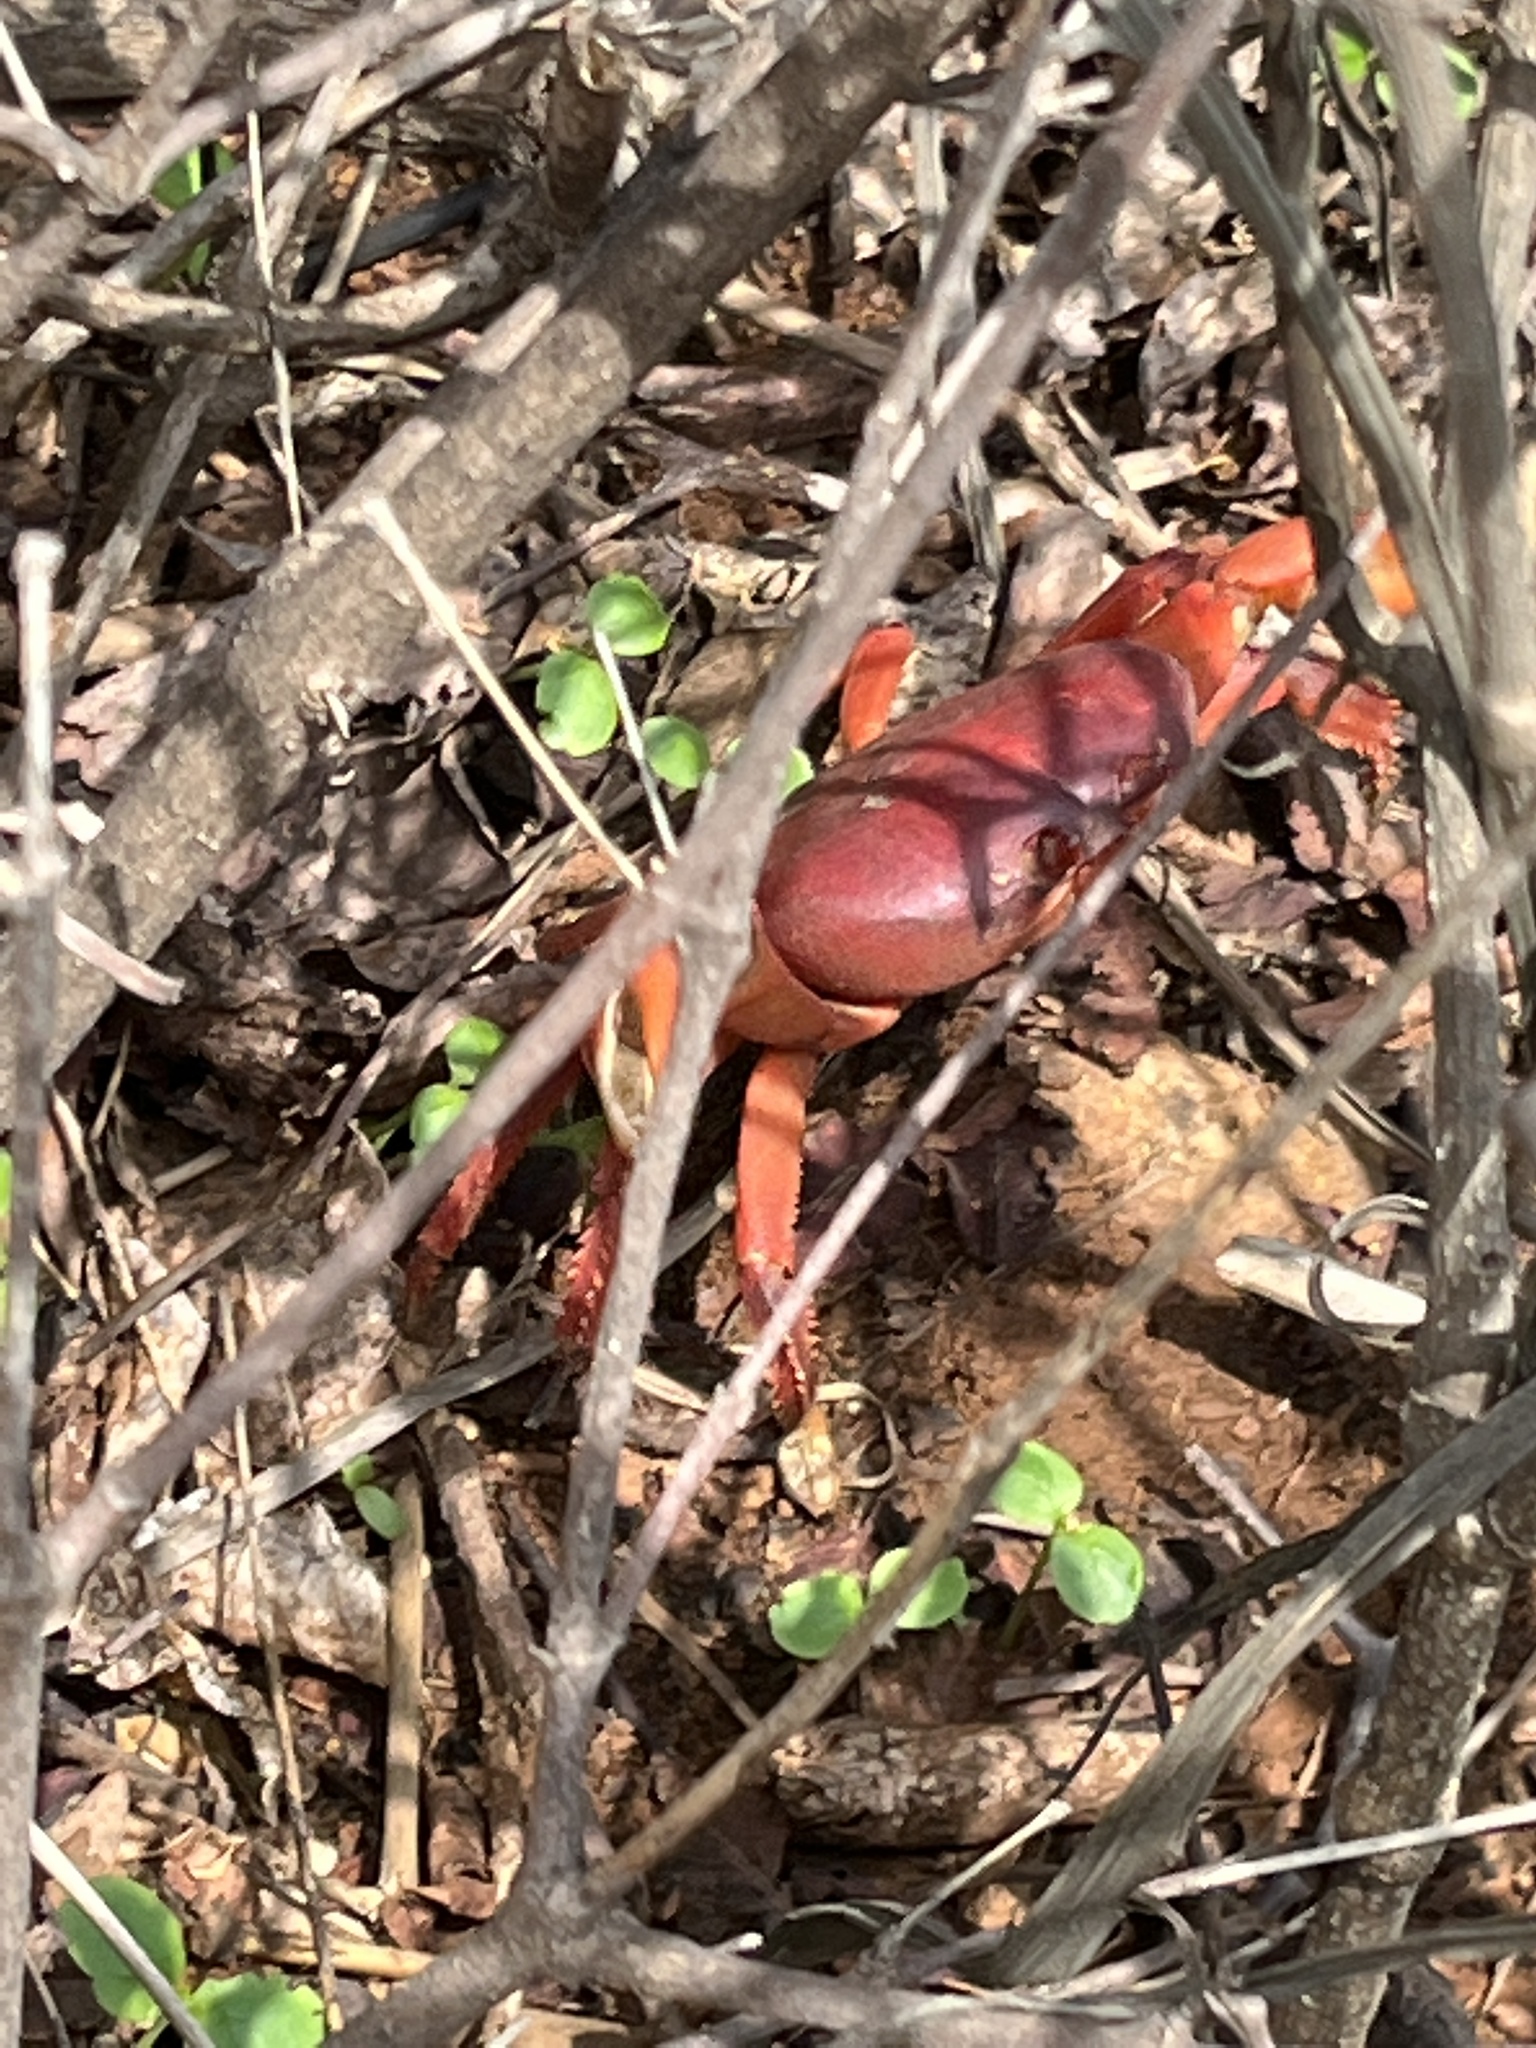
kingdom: Animalia
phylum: Arthropoda
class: Malacostraca
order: Decapoda
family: Gecarcinidae
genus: Johngarthia
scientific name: Johngarthia planata
